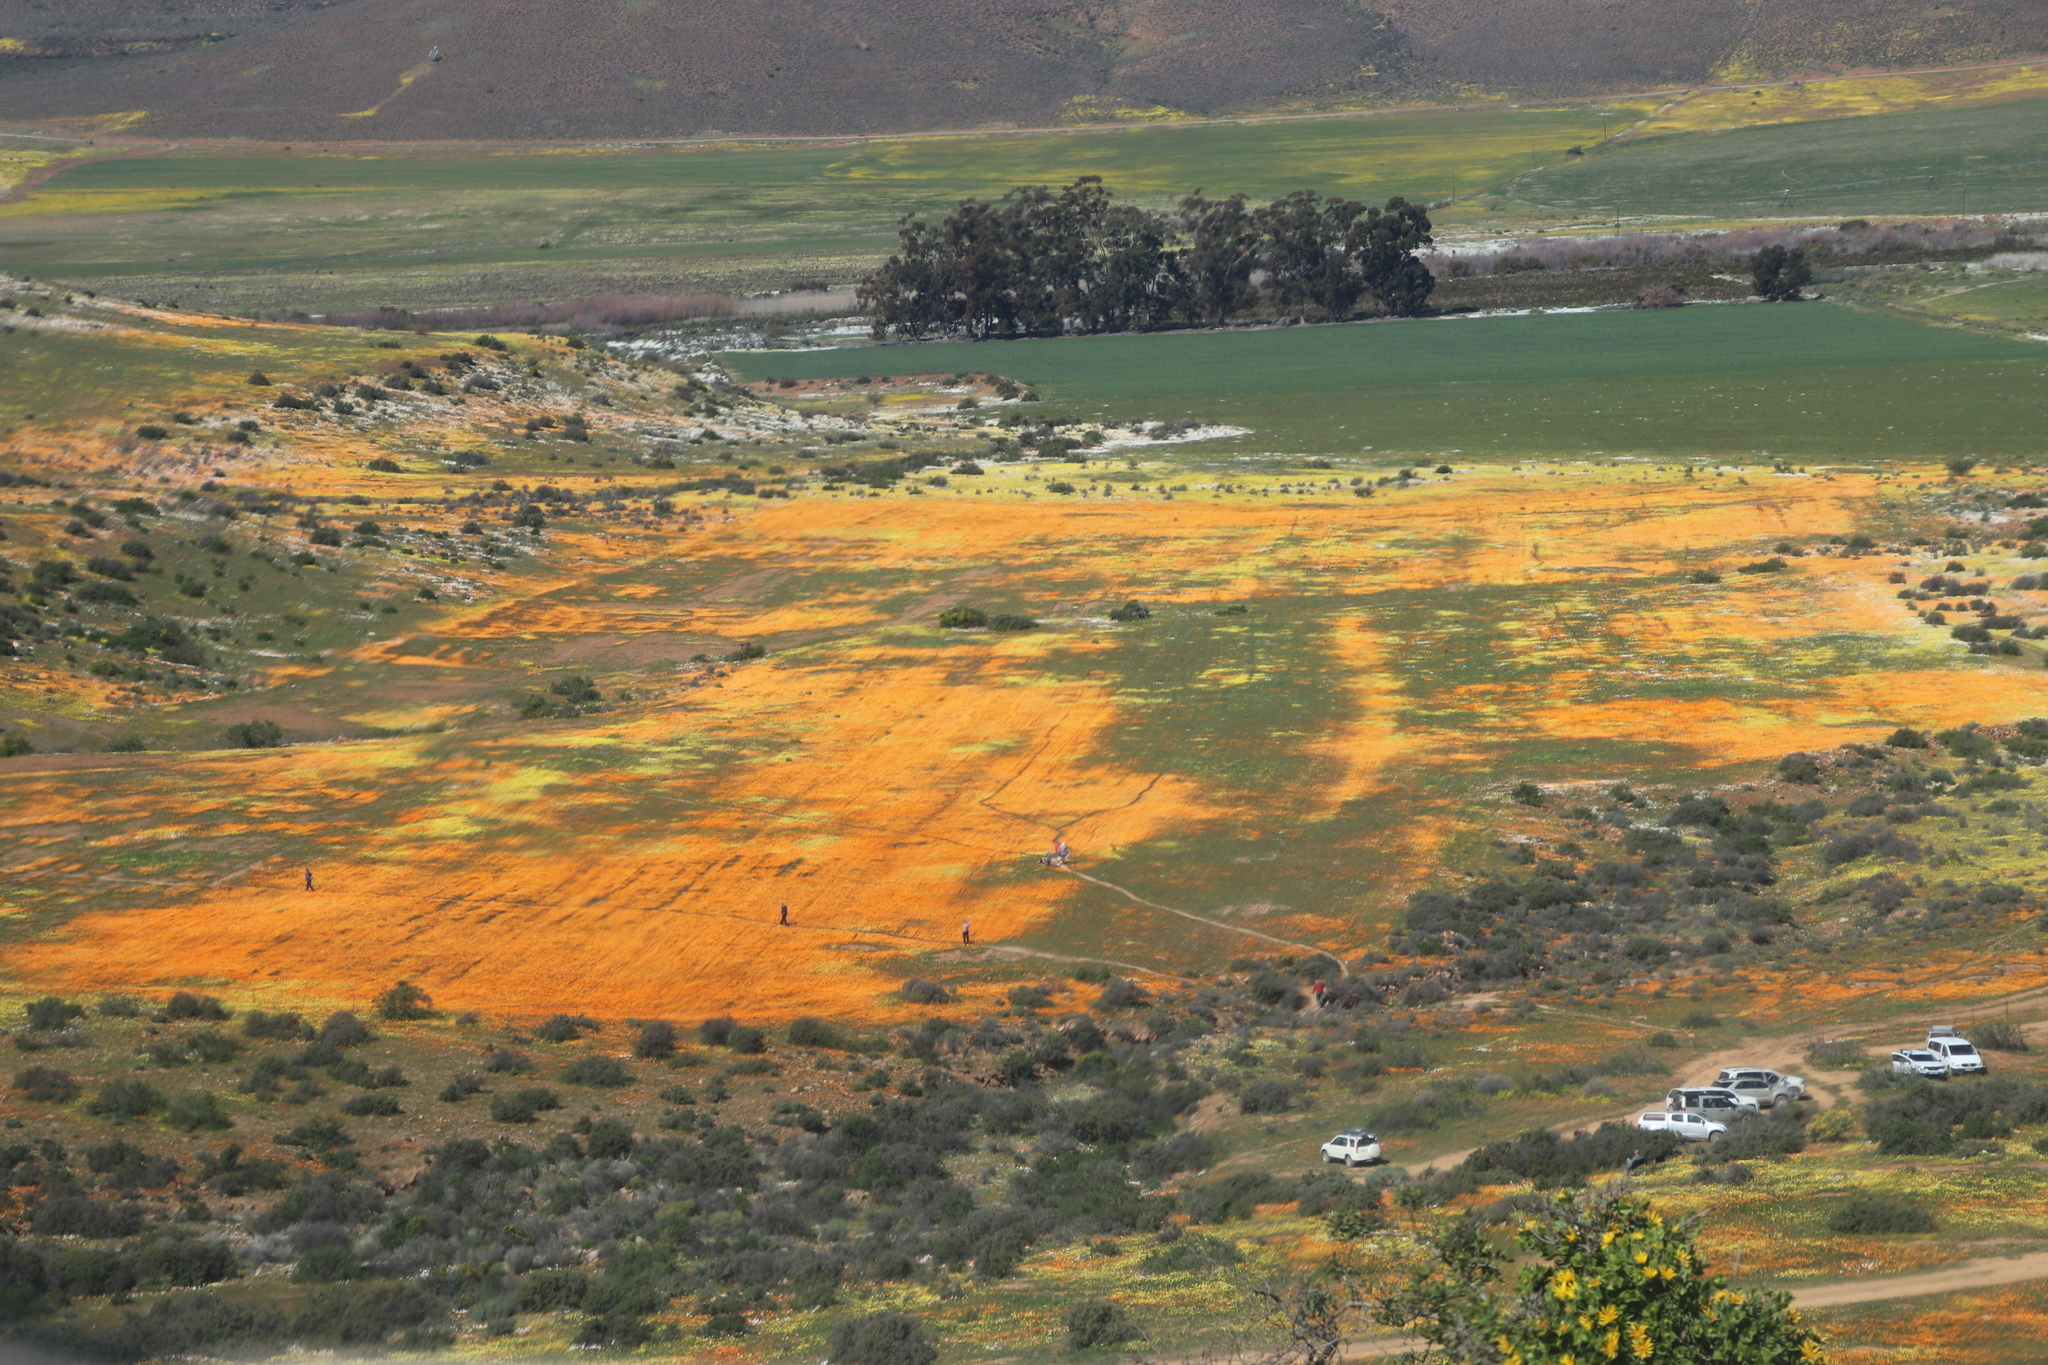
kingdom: Plantae
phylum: Tracheophyta
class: Magnoliopsida
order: Asterales
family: Asteraceae
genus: Dimorphotheca
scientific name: Dimorphotheca sinuata
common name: Glandular cape marigold
